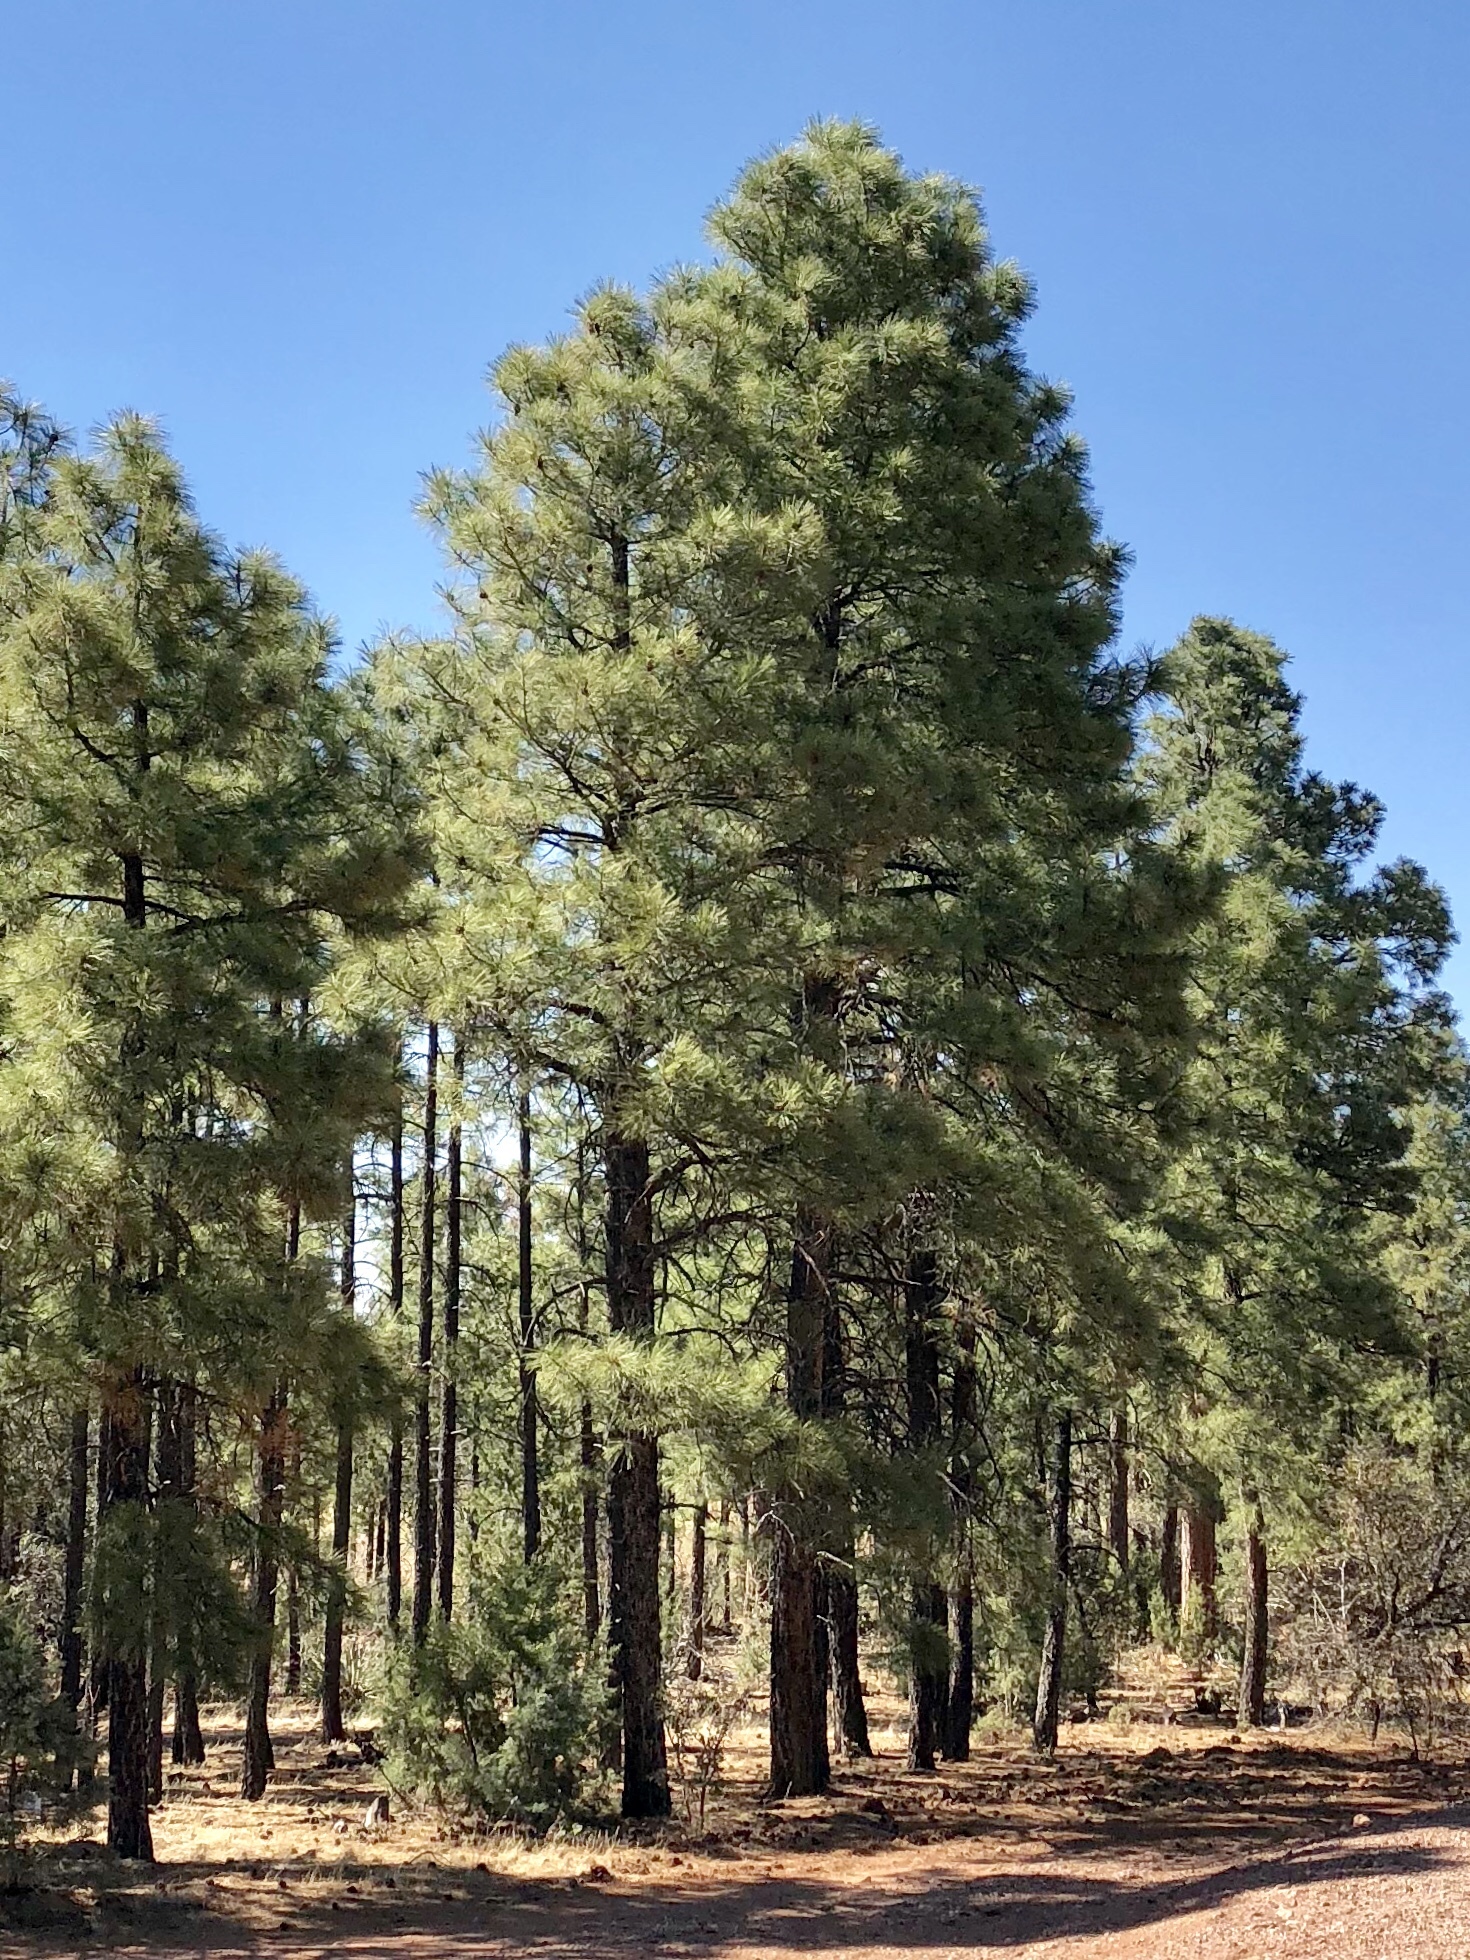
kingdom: Plantae
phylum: Tracheophyta
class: Pinopsida
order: Pinales
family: Pinaceae
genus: Pinus
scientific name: Pinus ponderosa
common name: Western yellow-pine
